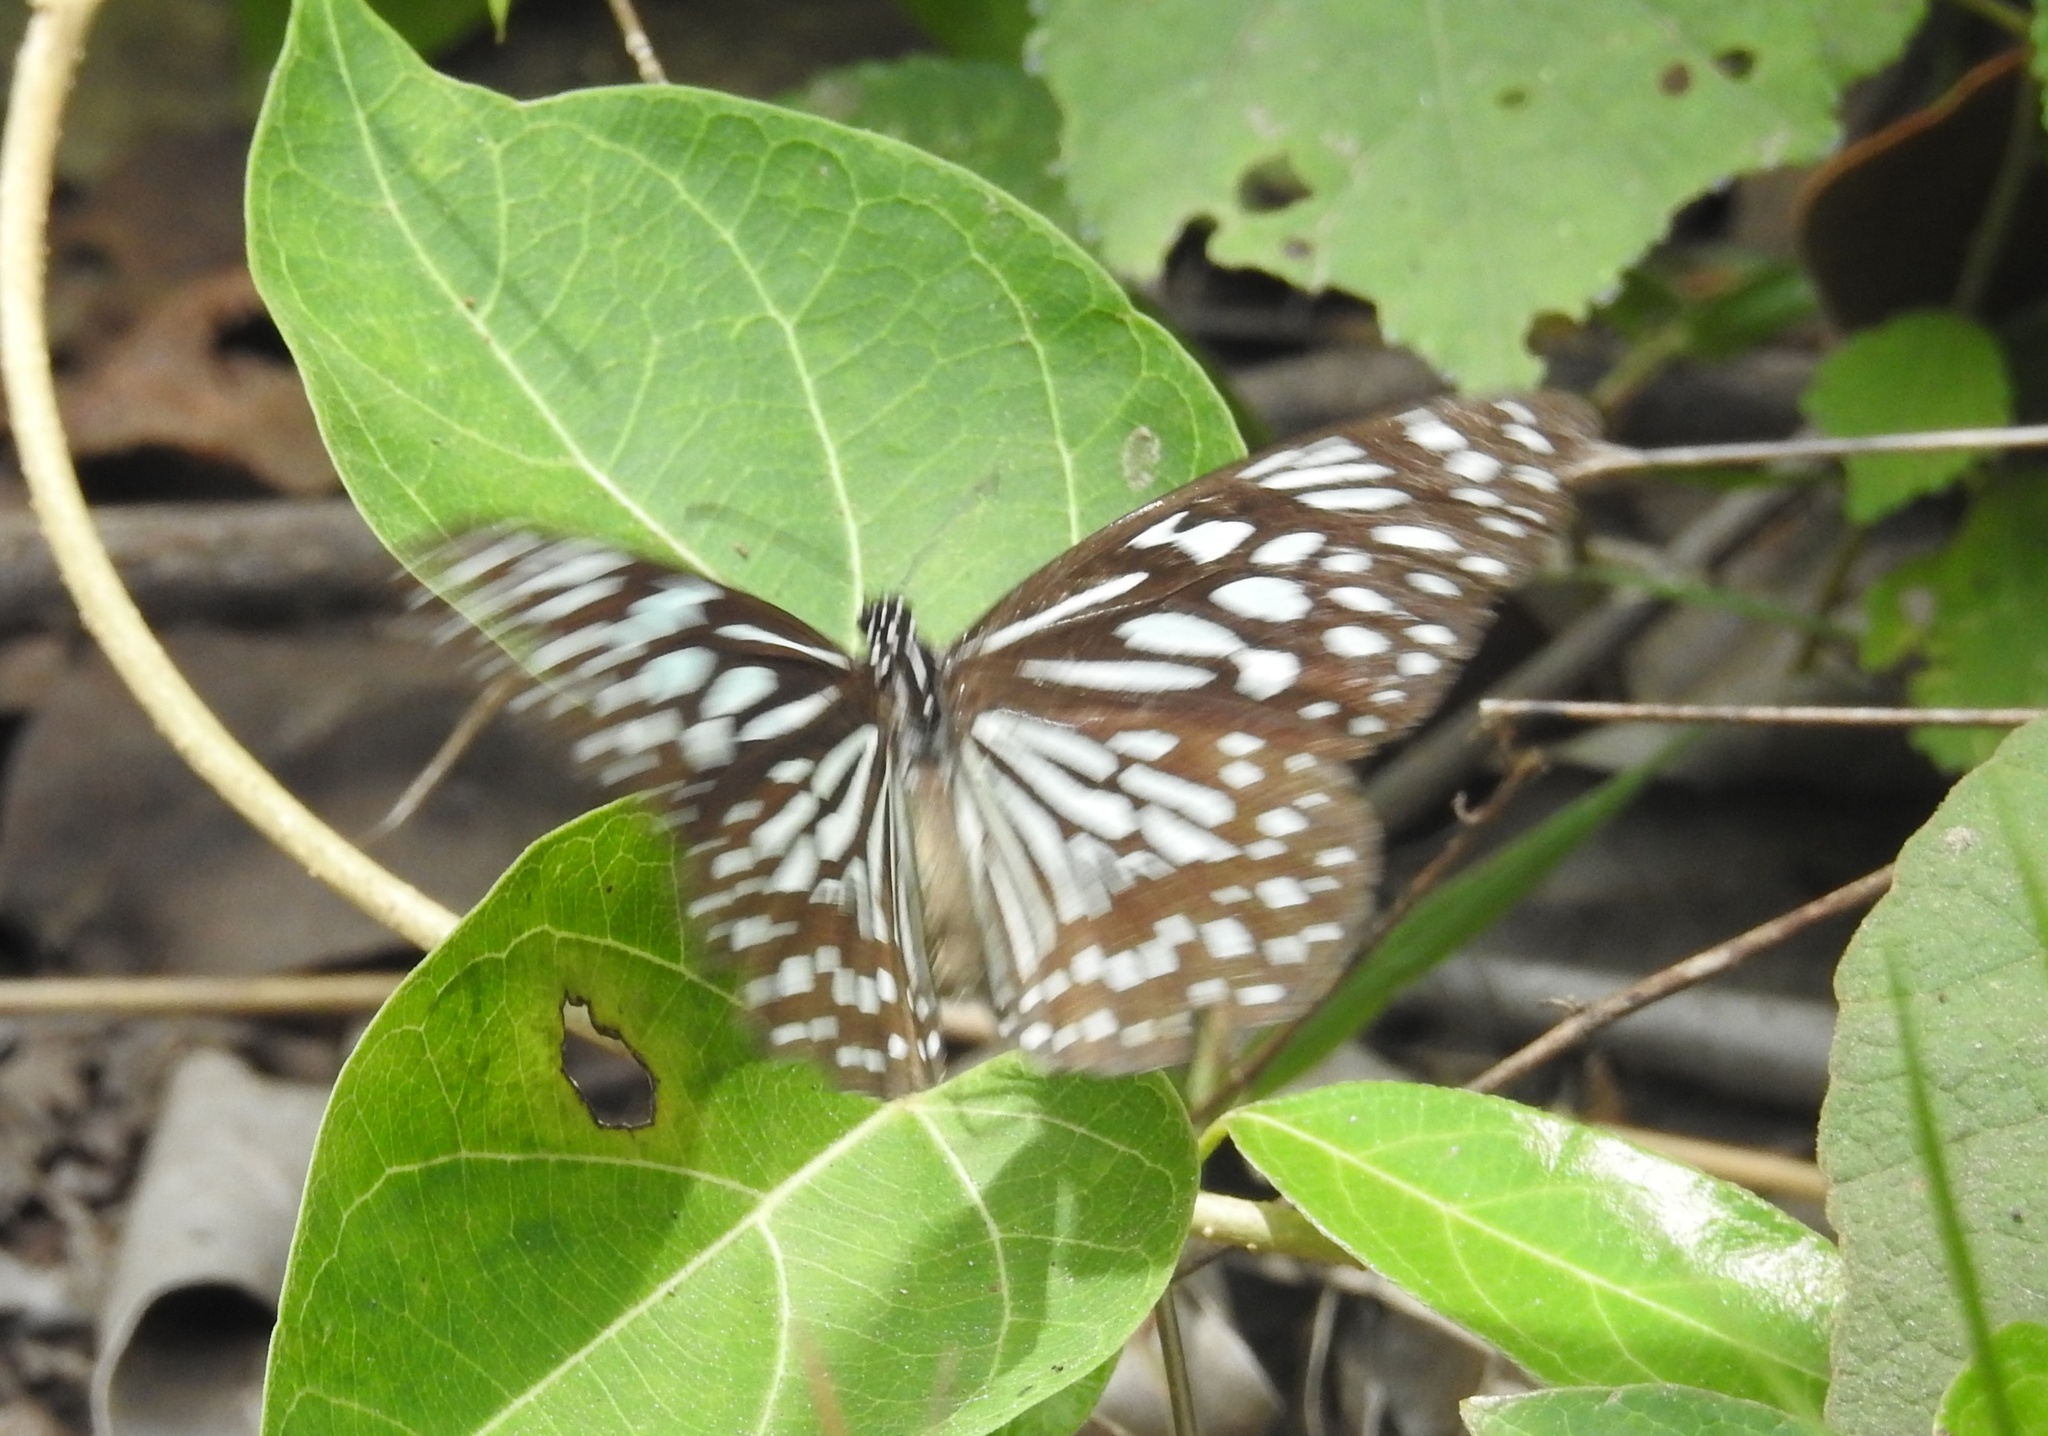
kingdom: Animalia
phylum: Arthropoda
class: Insecta
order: Lepidoptera
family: Nymphalidae
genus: Tirumala
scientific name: Tirumala septentrionis
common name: Dark blue tiger butterfly
